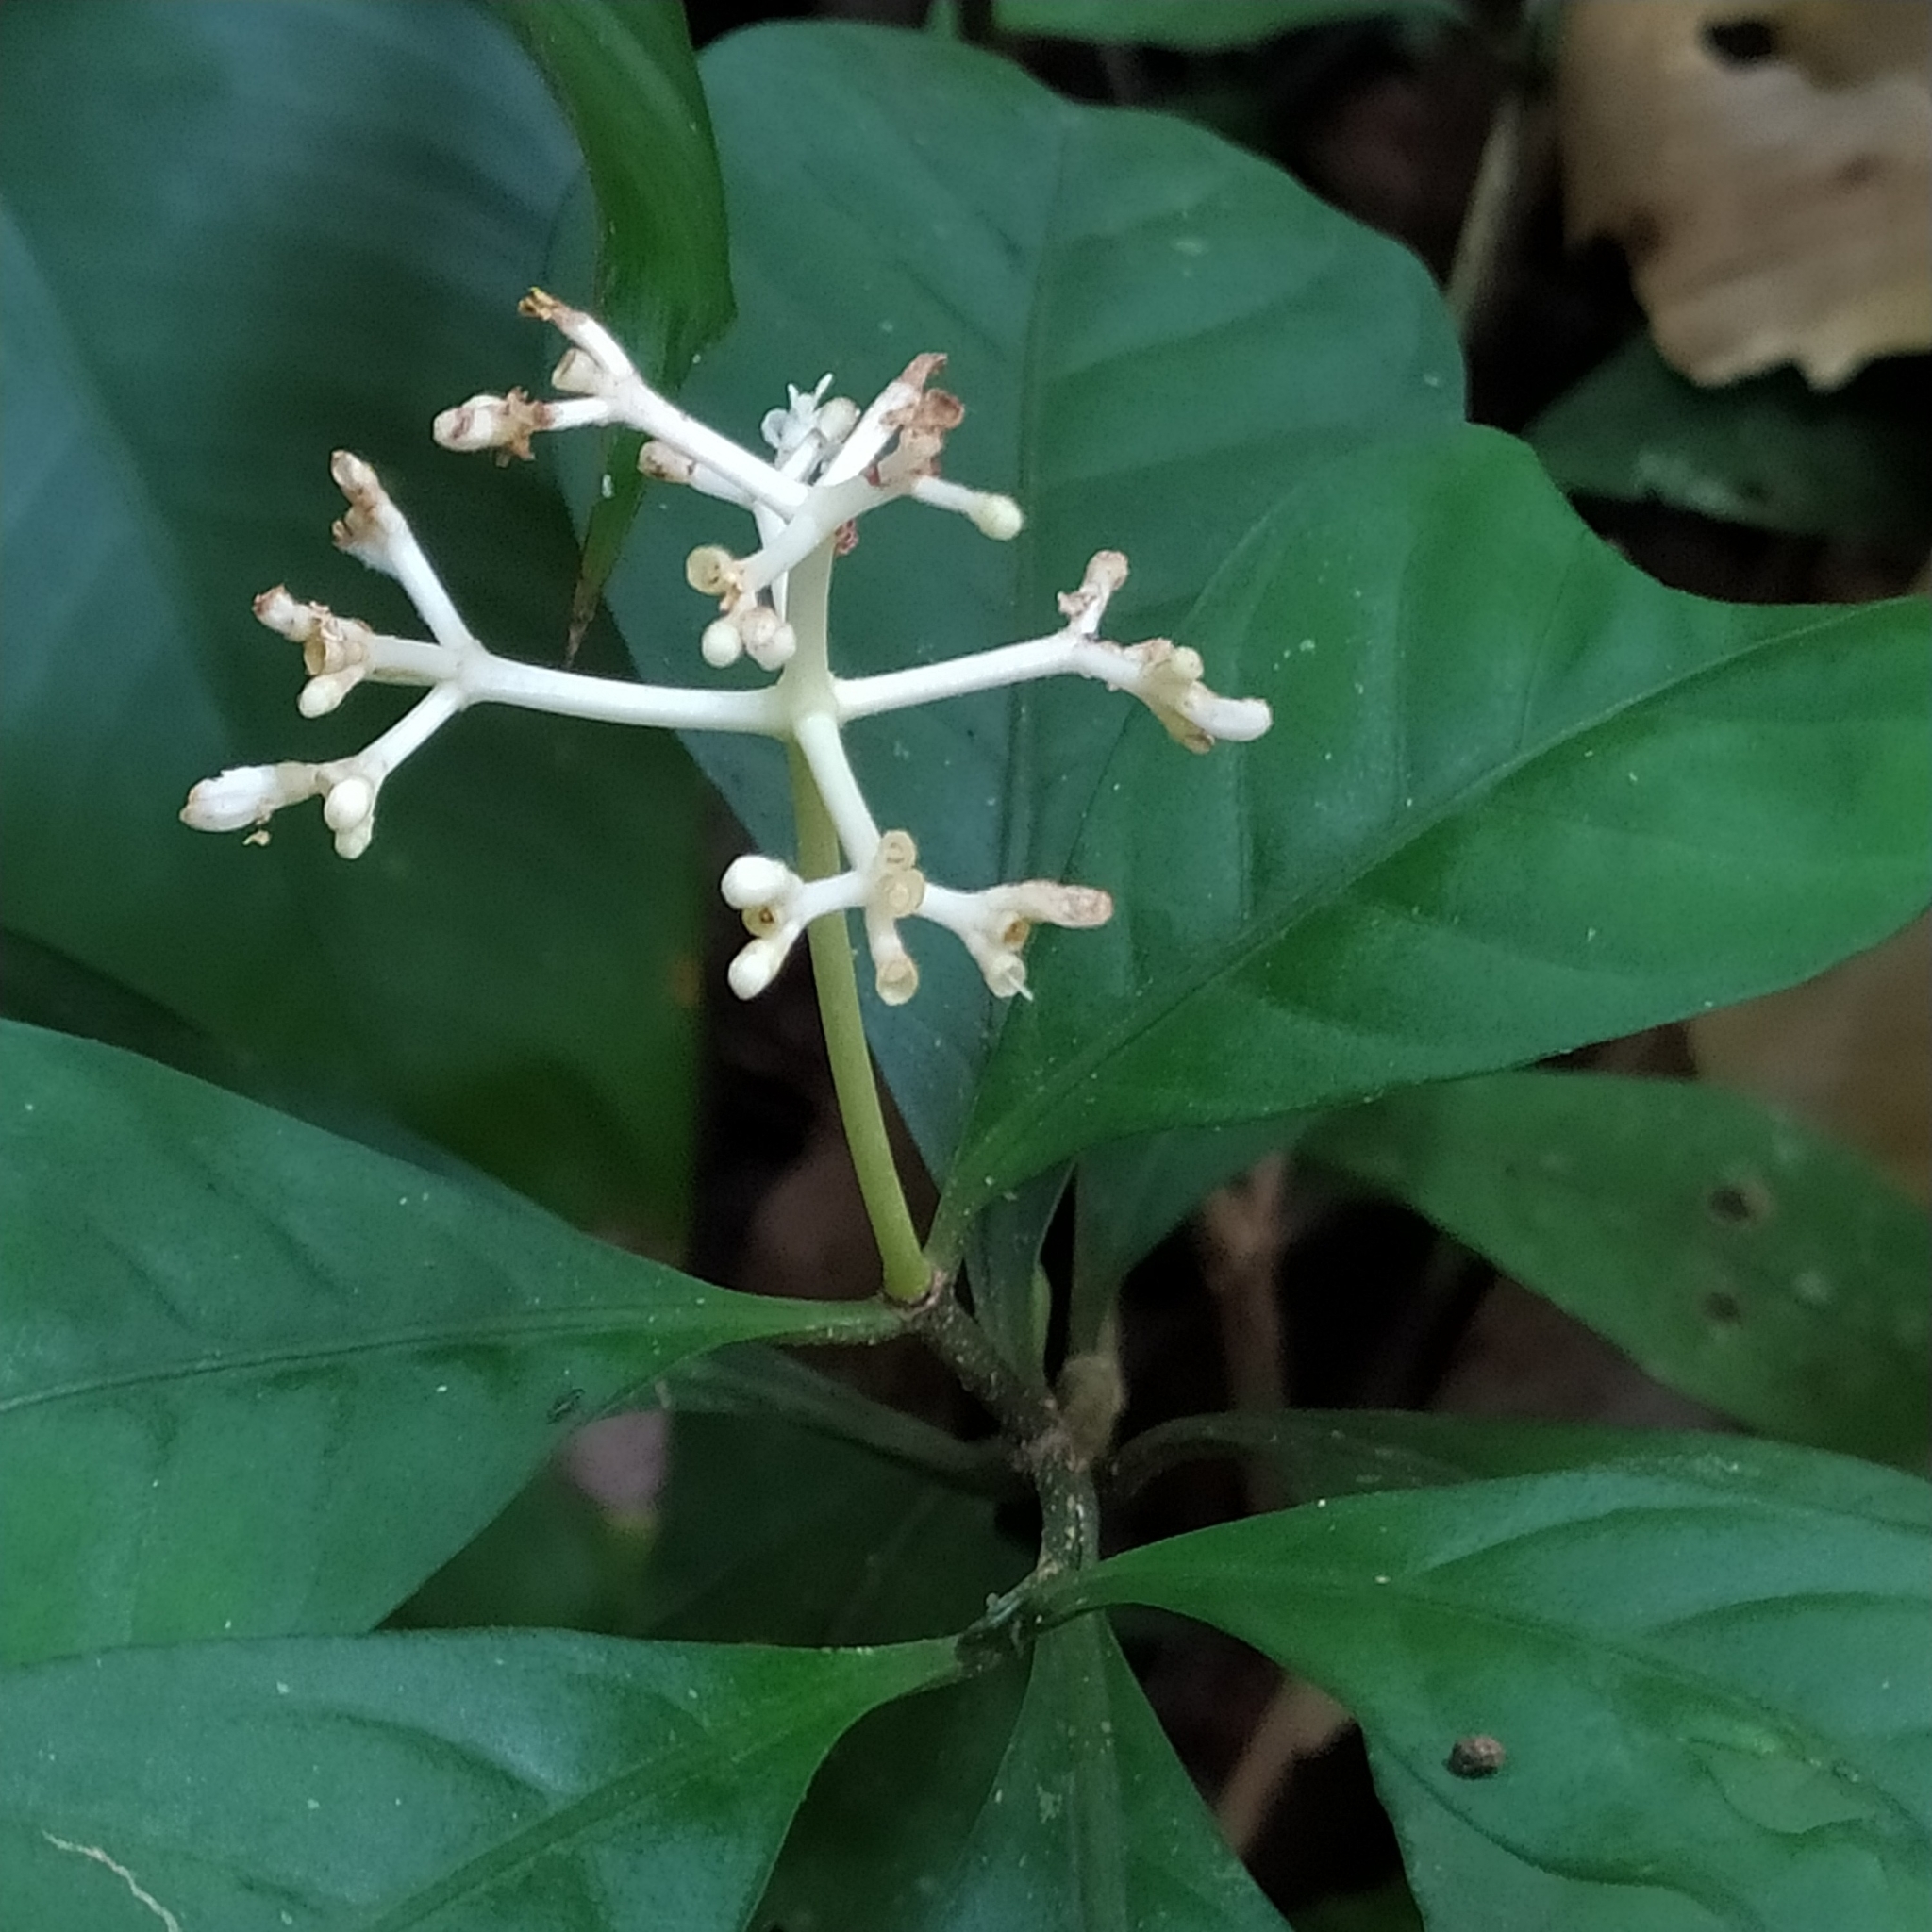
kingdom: Plantae
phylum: Tracheophyta
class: Magnoliopsida
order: Gentianales
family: Rubiaceae
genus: Psychotria
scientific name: Psychotria cupularis
